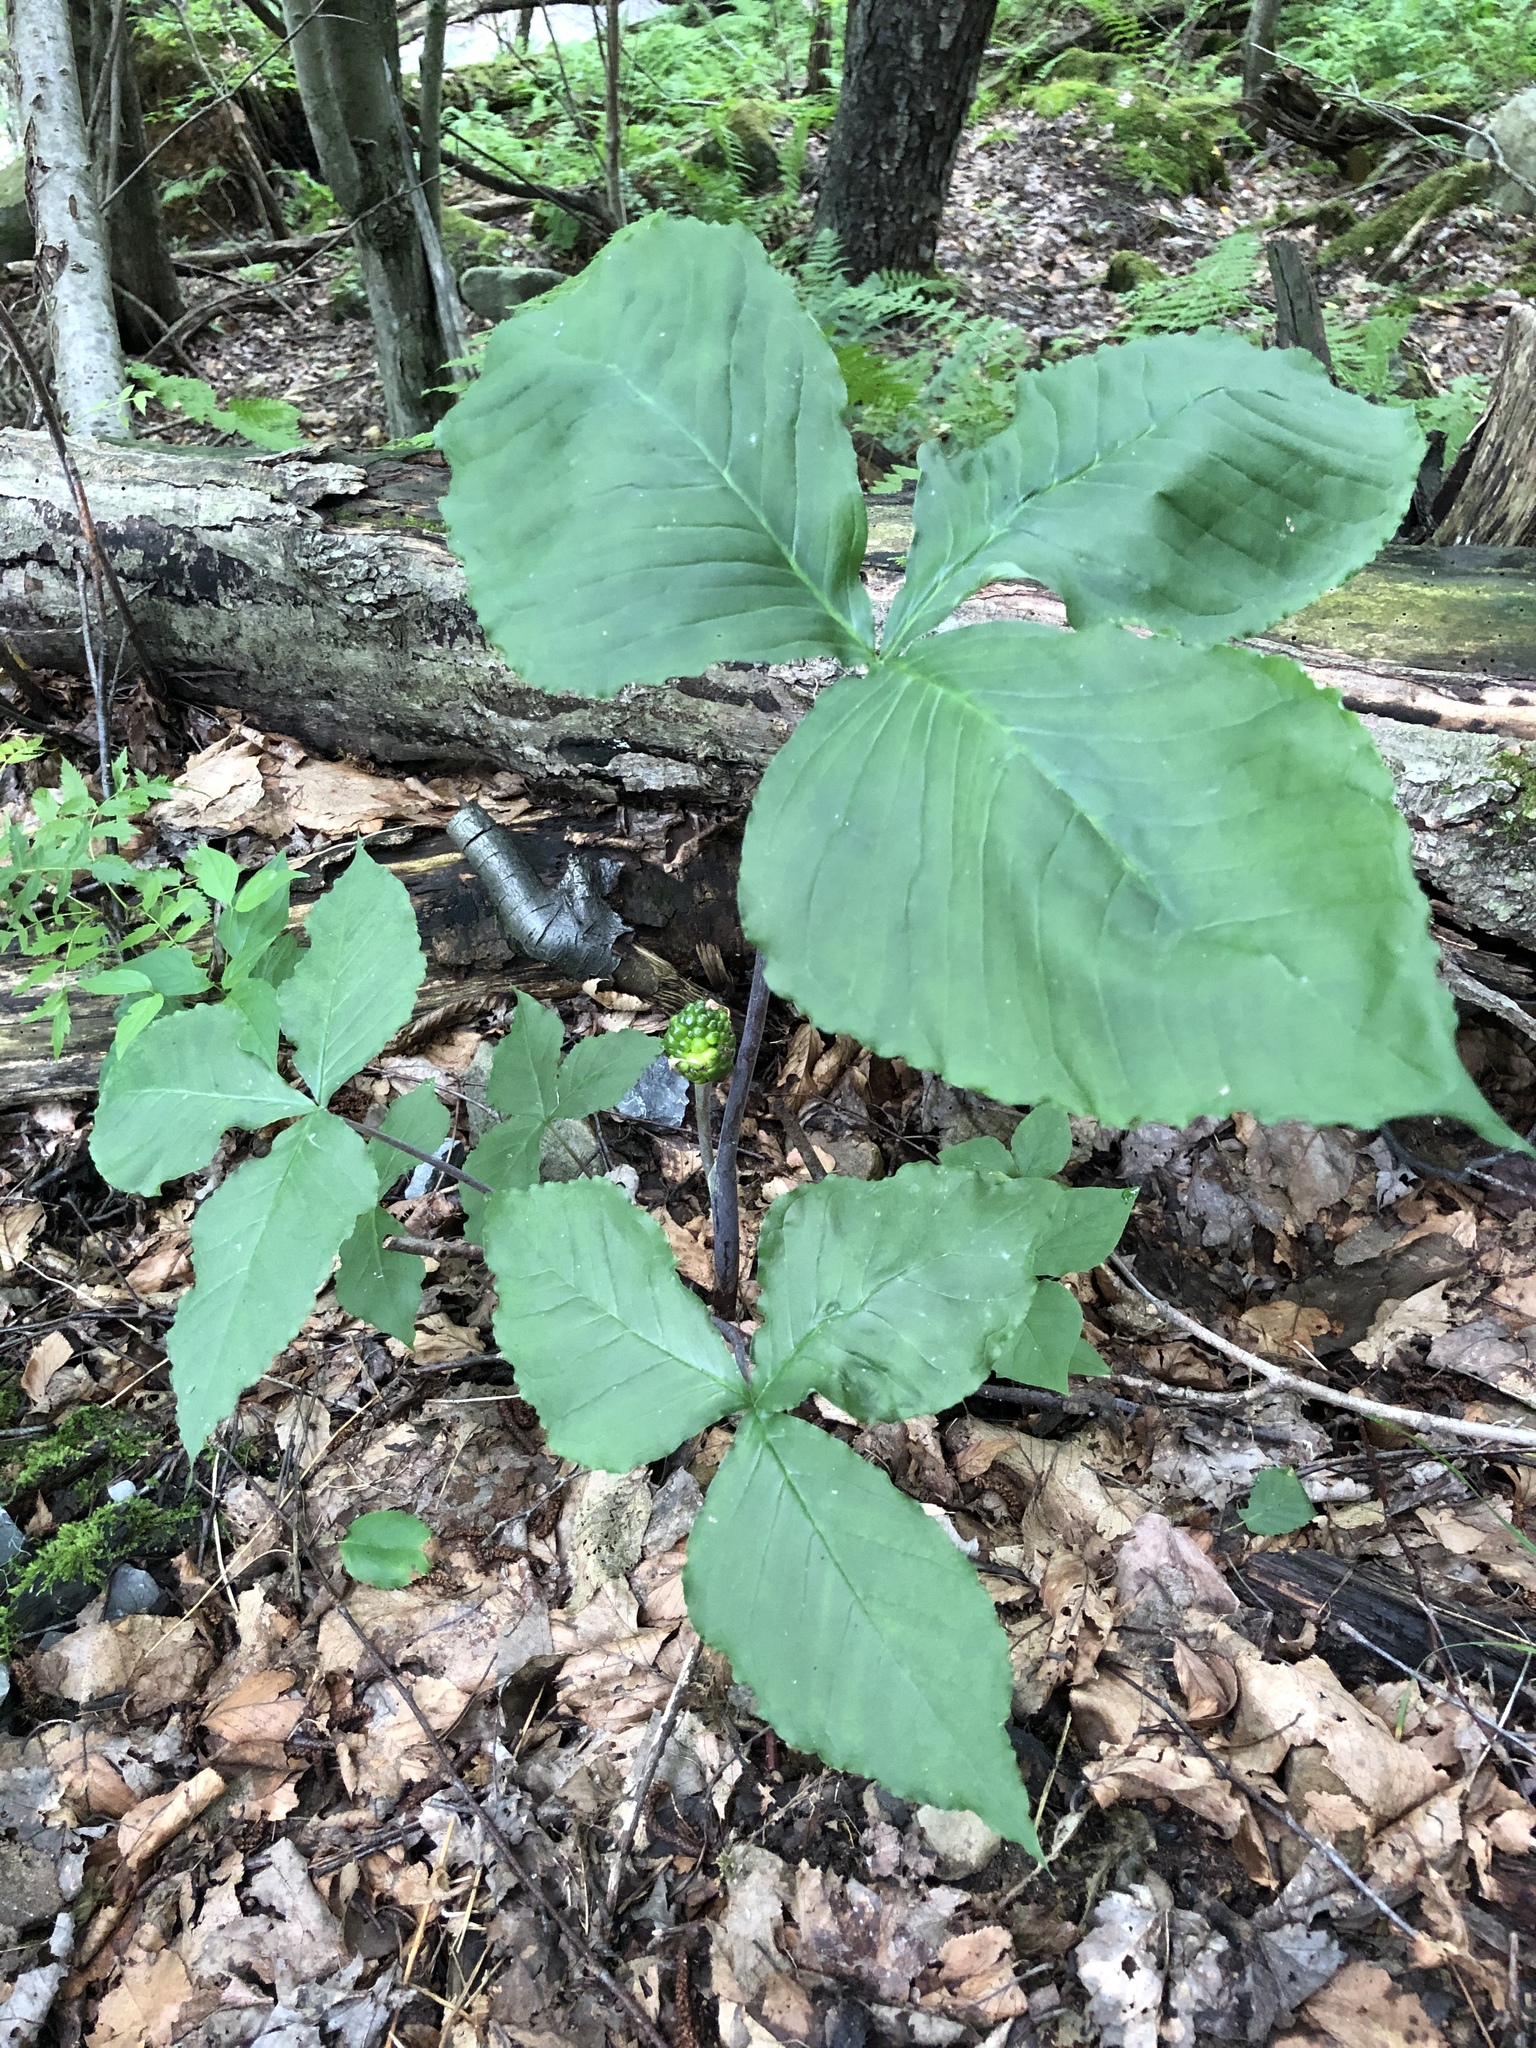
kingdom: Plantae
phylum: Tracheophyta
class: Liliopsida
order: Alismatales
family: Araceae
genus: Arisaema
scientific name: Arisaema triphyllum
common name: Jack-in-the-pulpit
